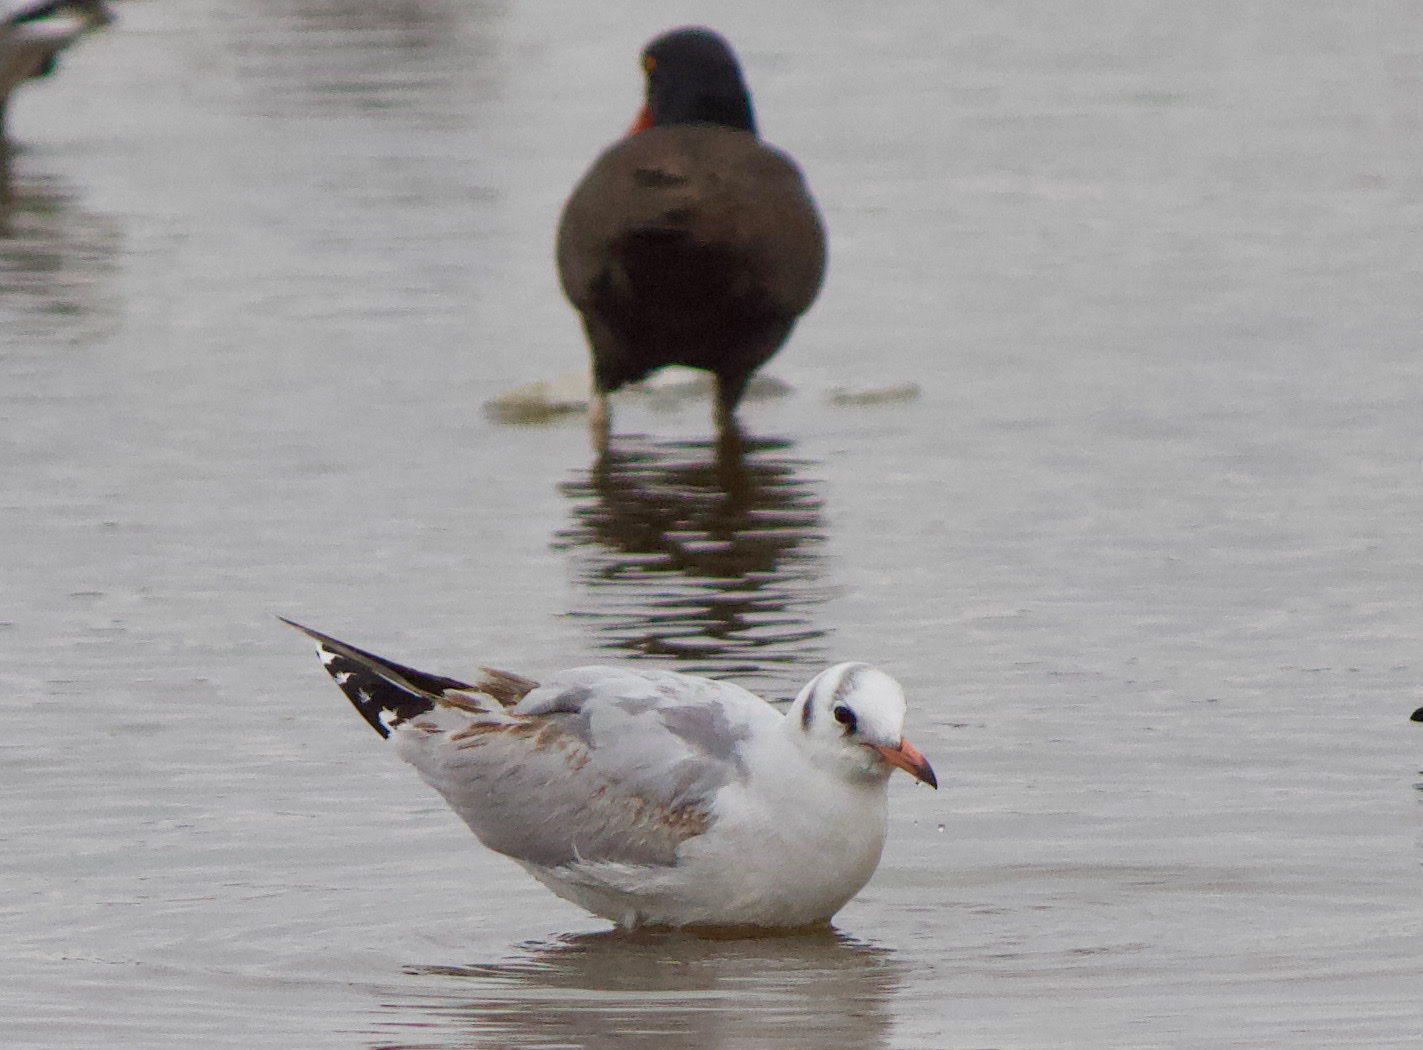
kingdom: Animalia
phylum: Chordata
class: Aves
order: Charadriiformes
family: Laridae
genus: Chroicocephalus
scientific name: Chroicocephalus maculipennis
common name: Brown-hooded gull
